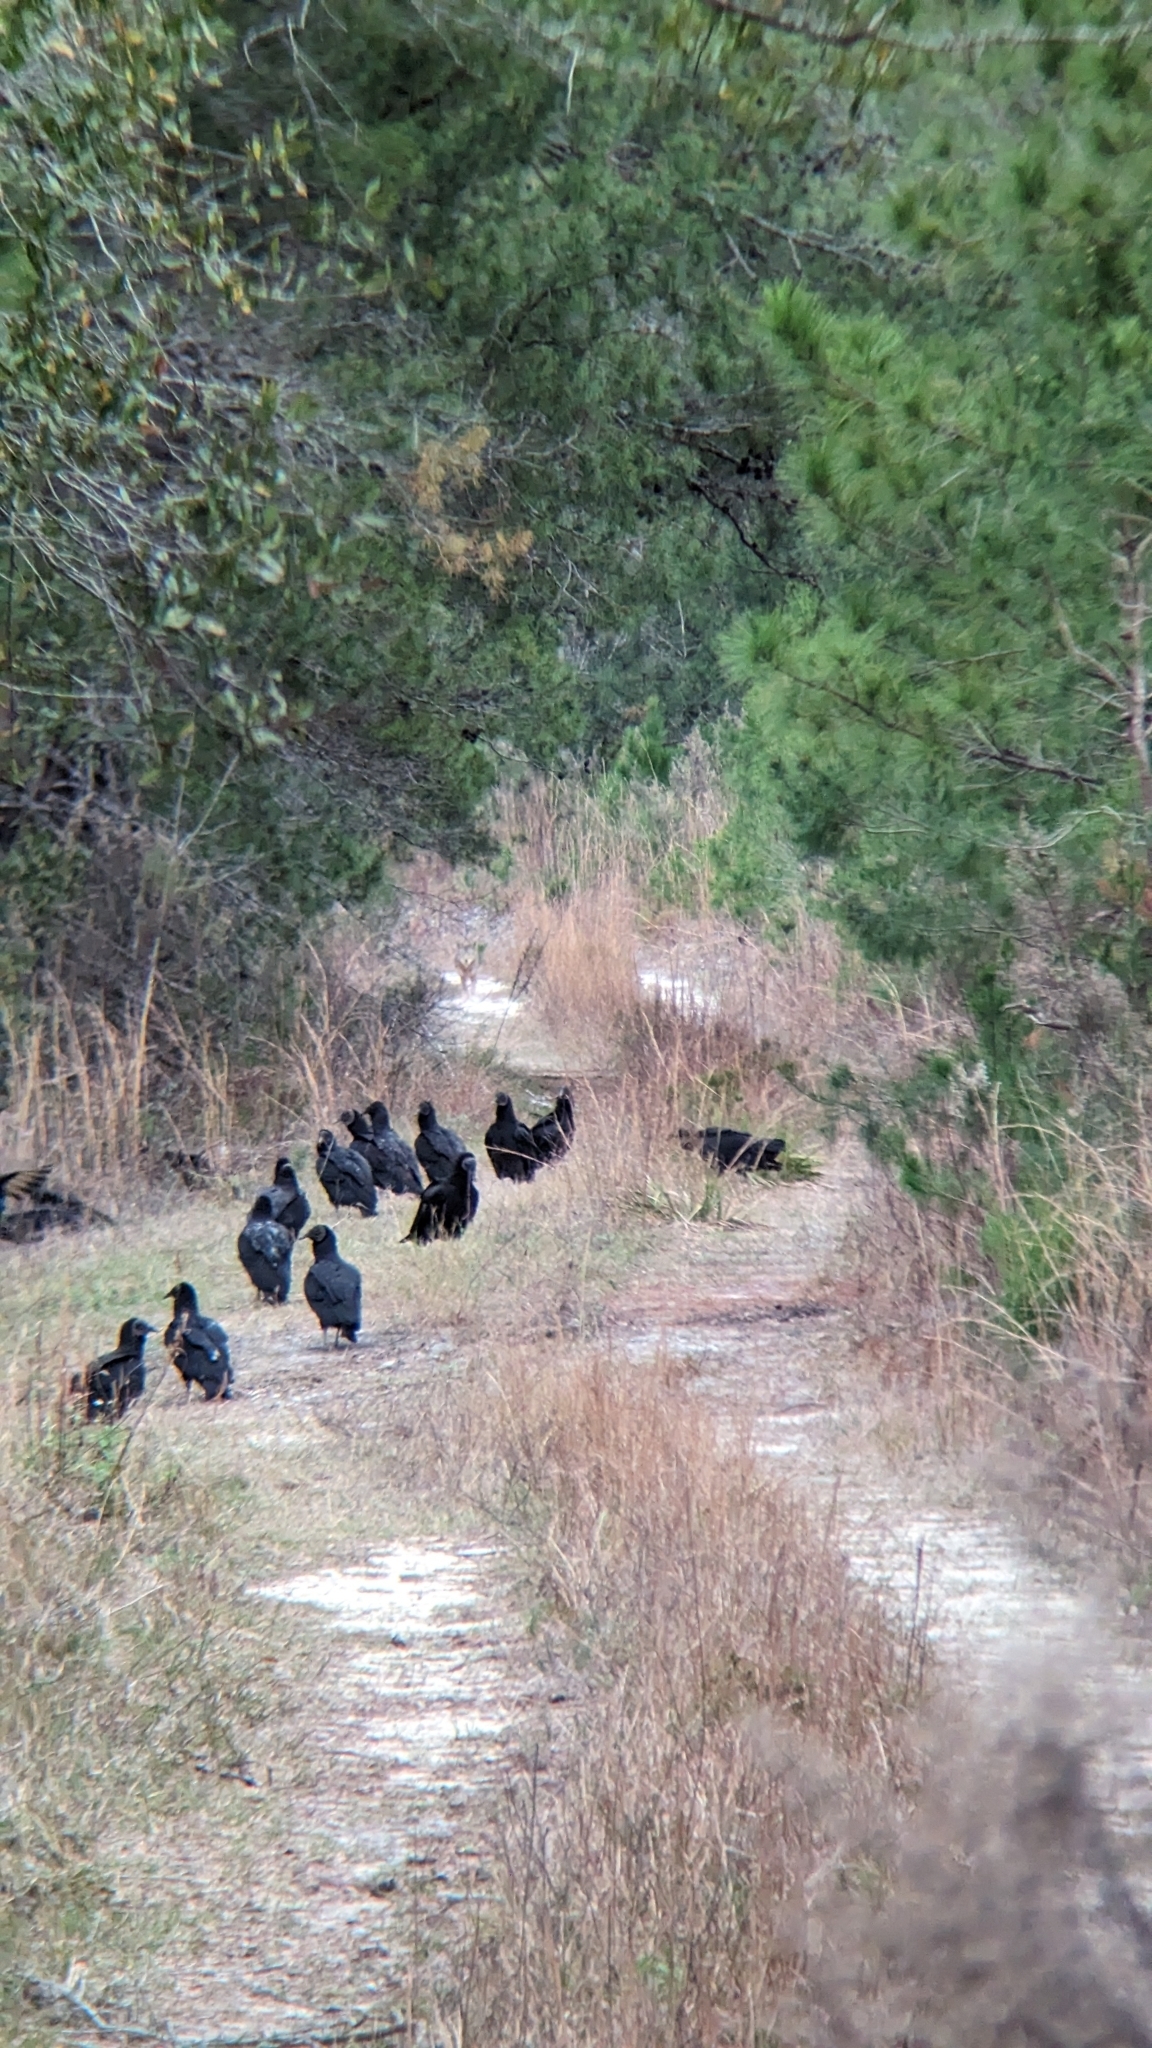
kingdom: Animalia
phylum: Chordata
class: Mammalia
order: Carnivora
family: Canidae
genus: Canis
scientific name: Canis latrans
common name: Coyote
